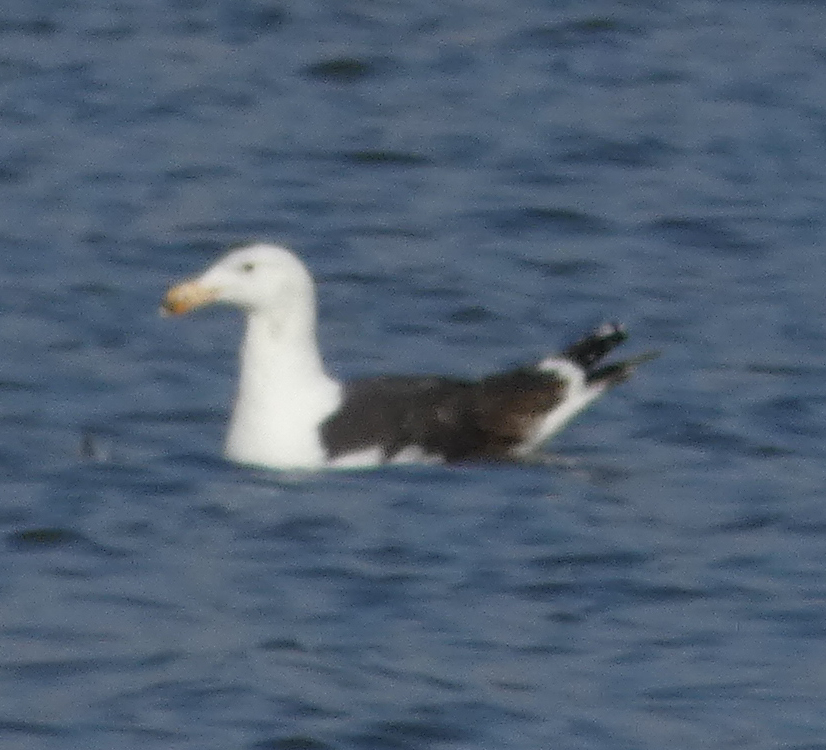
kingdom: Animalia
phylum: Chordata
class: Aves
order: Charadriiformes
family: Laridae
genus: Larus
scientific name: Larus marinus
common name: Great black-backed gull
